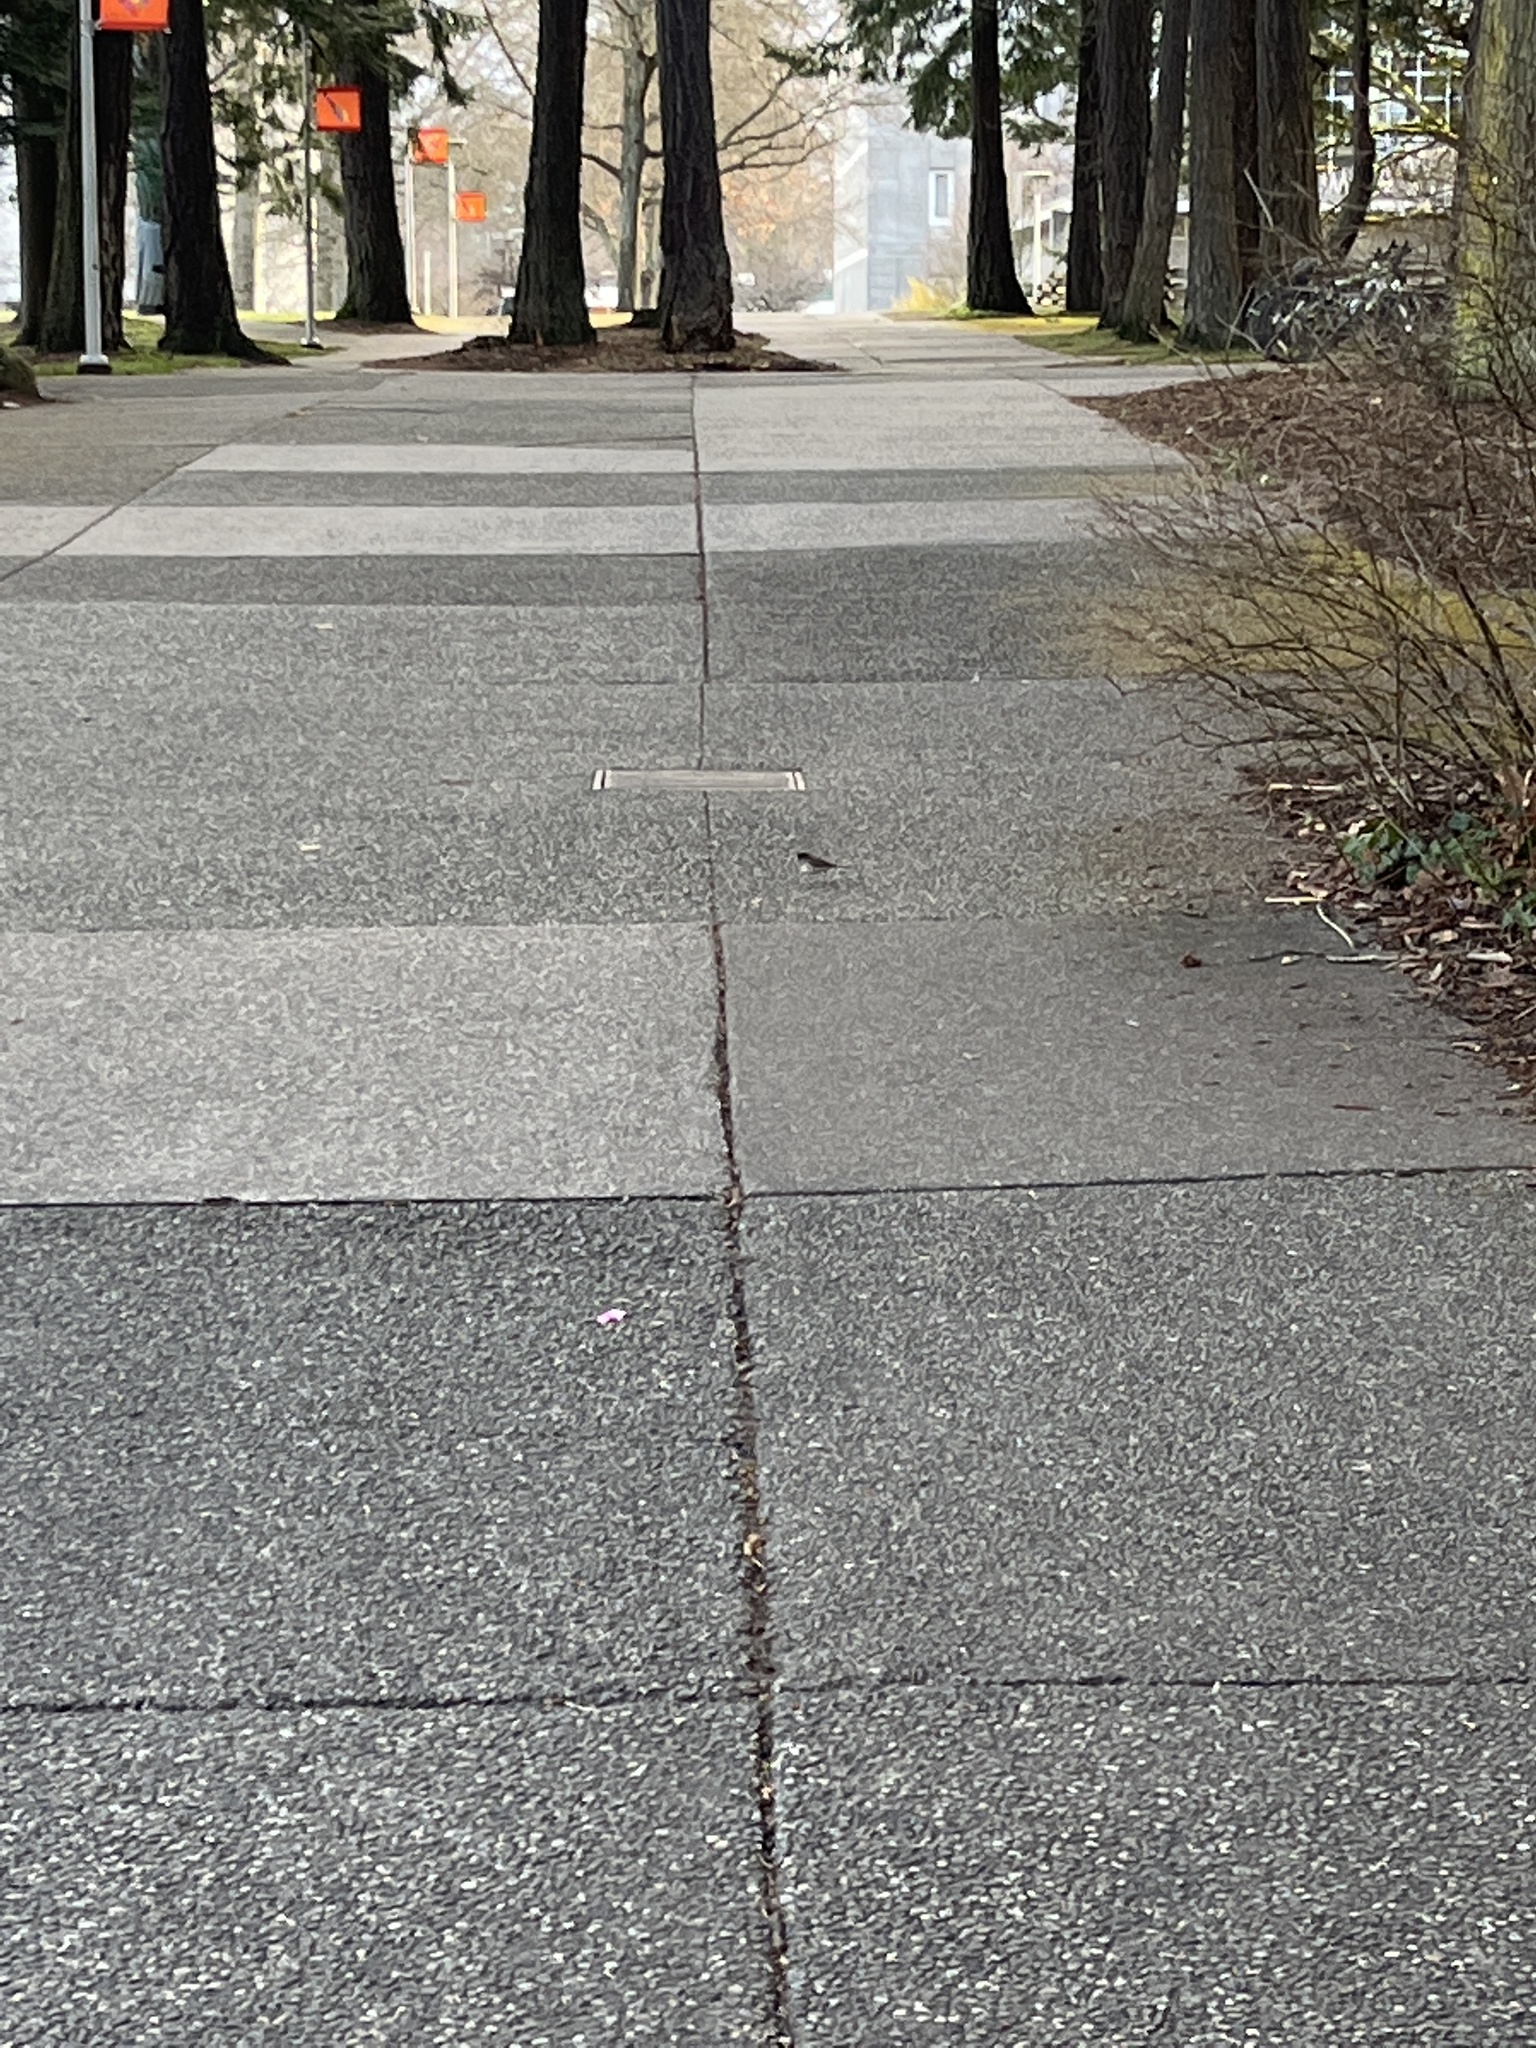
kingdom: Animalia
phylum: Chordata
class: Aves
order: Passeriformes
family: Passerellidae
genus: Junco
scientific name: Junco hyemalis
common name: Dark-eyed junco
